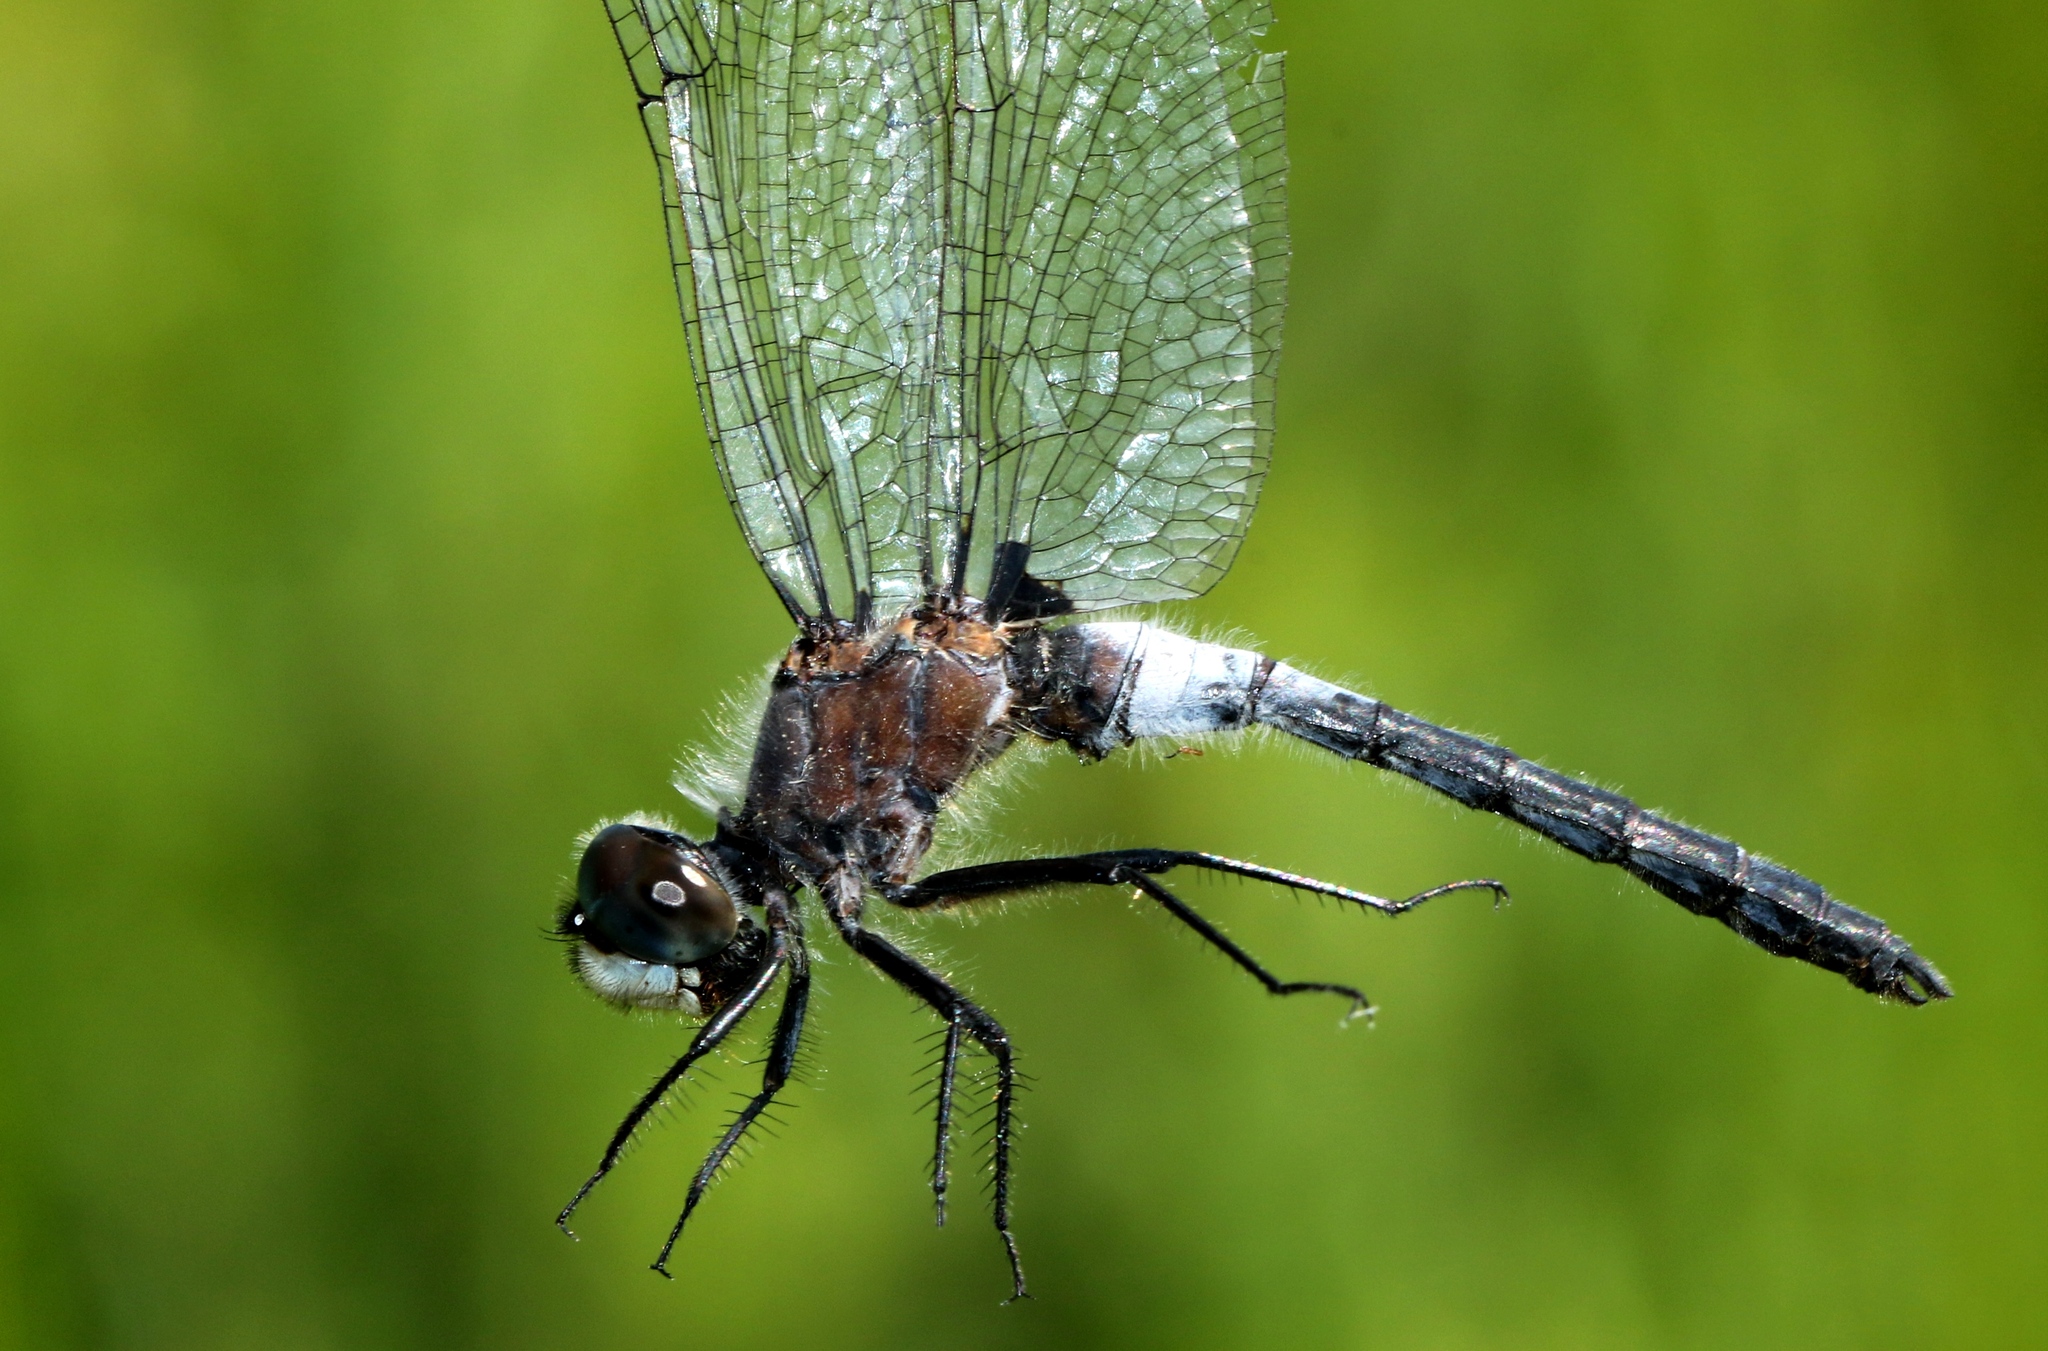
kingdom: Animalia
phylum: Arthropoda
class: Insecta
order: Odonata
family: Libellulidae
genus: Leucorrhinia
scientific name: Leucorrhinia frigida
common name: Frosted whiteface
